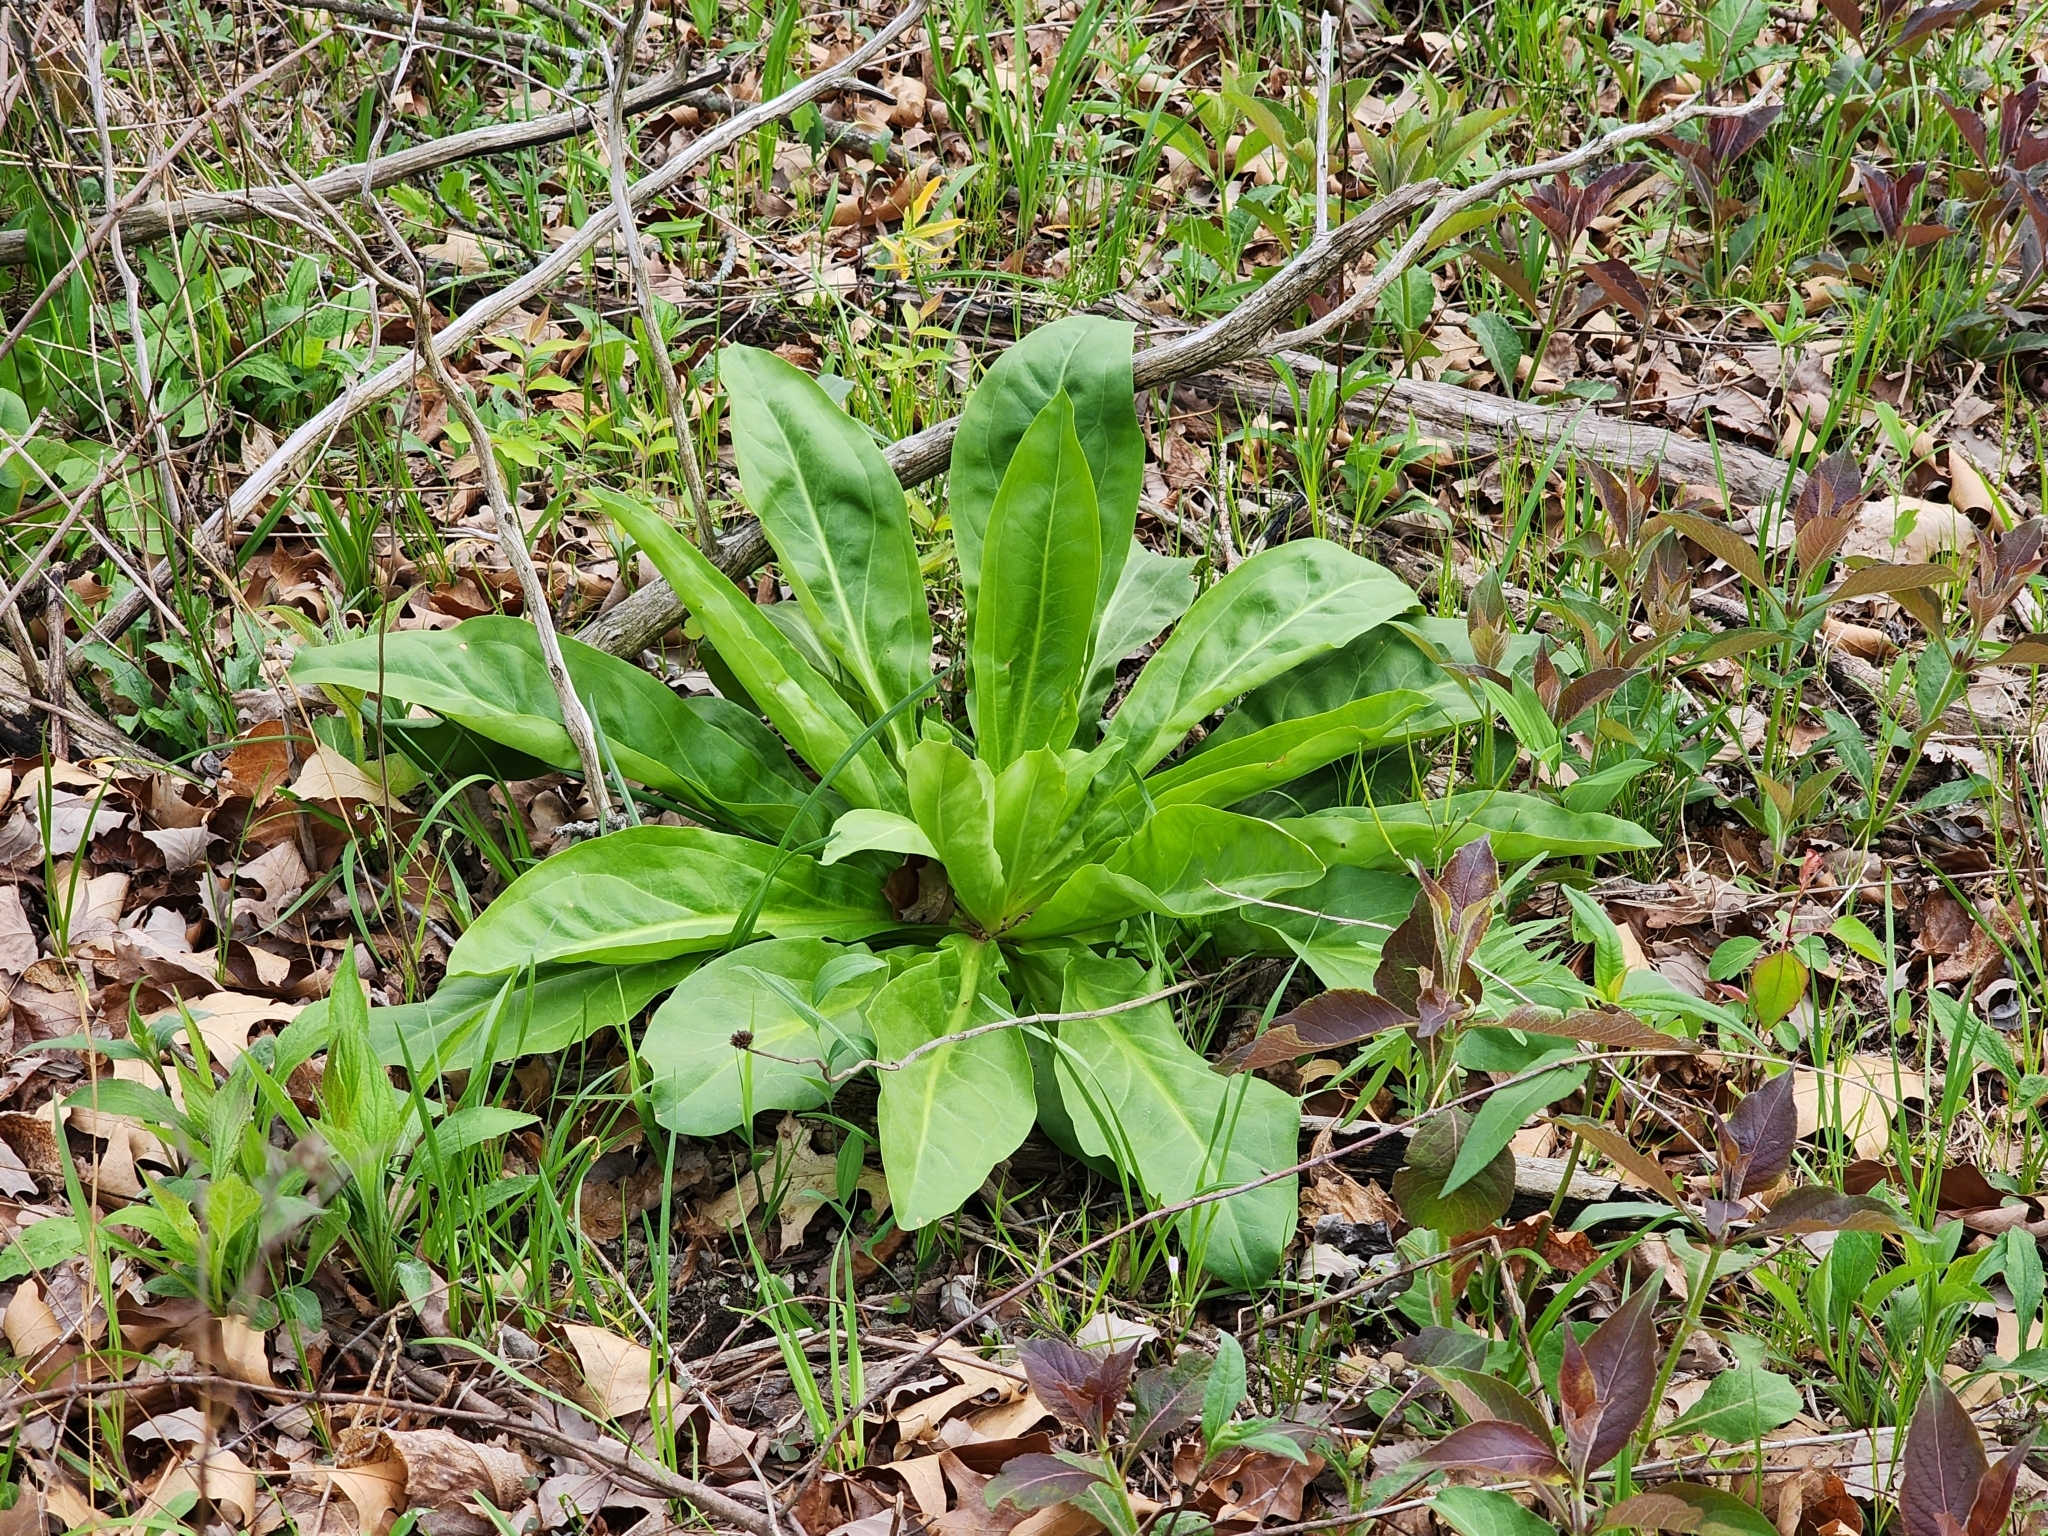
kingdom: Plantae
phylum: Tracheophyta
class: Magnoliopsida
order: Gentianales
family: Gentianaceae
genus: Frasera
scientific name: Frasera caroliniensis
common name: American columbo
